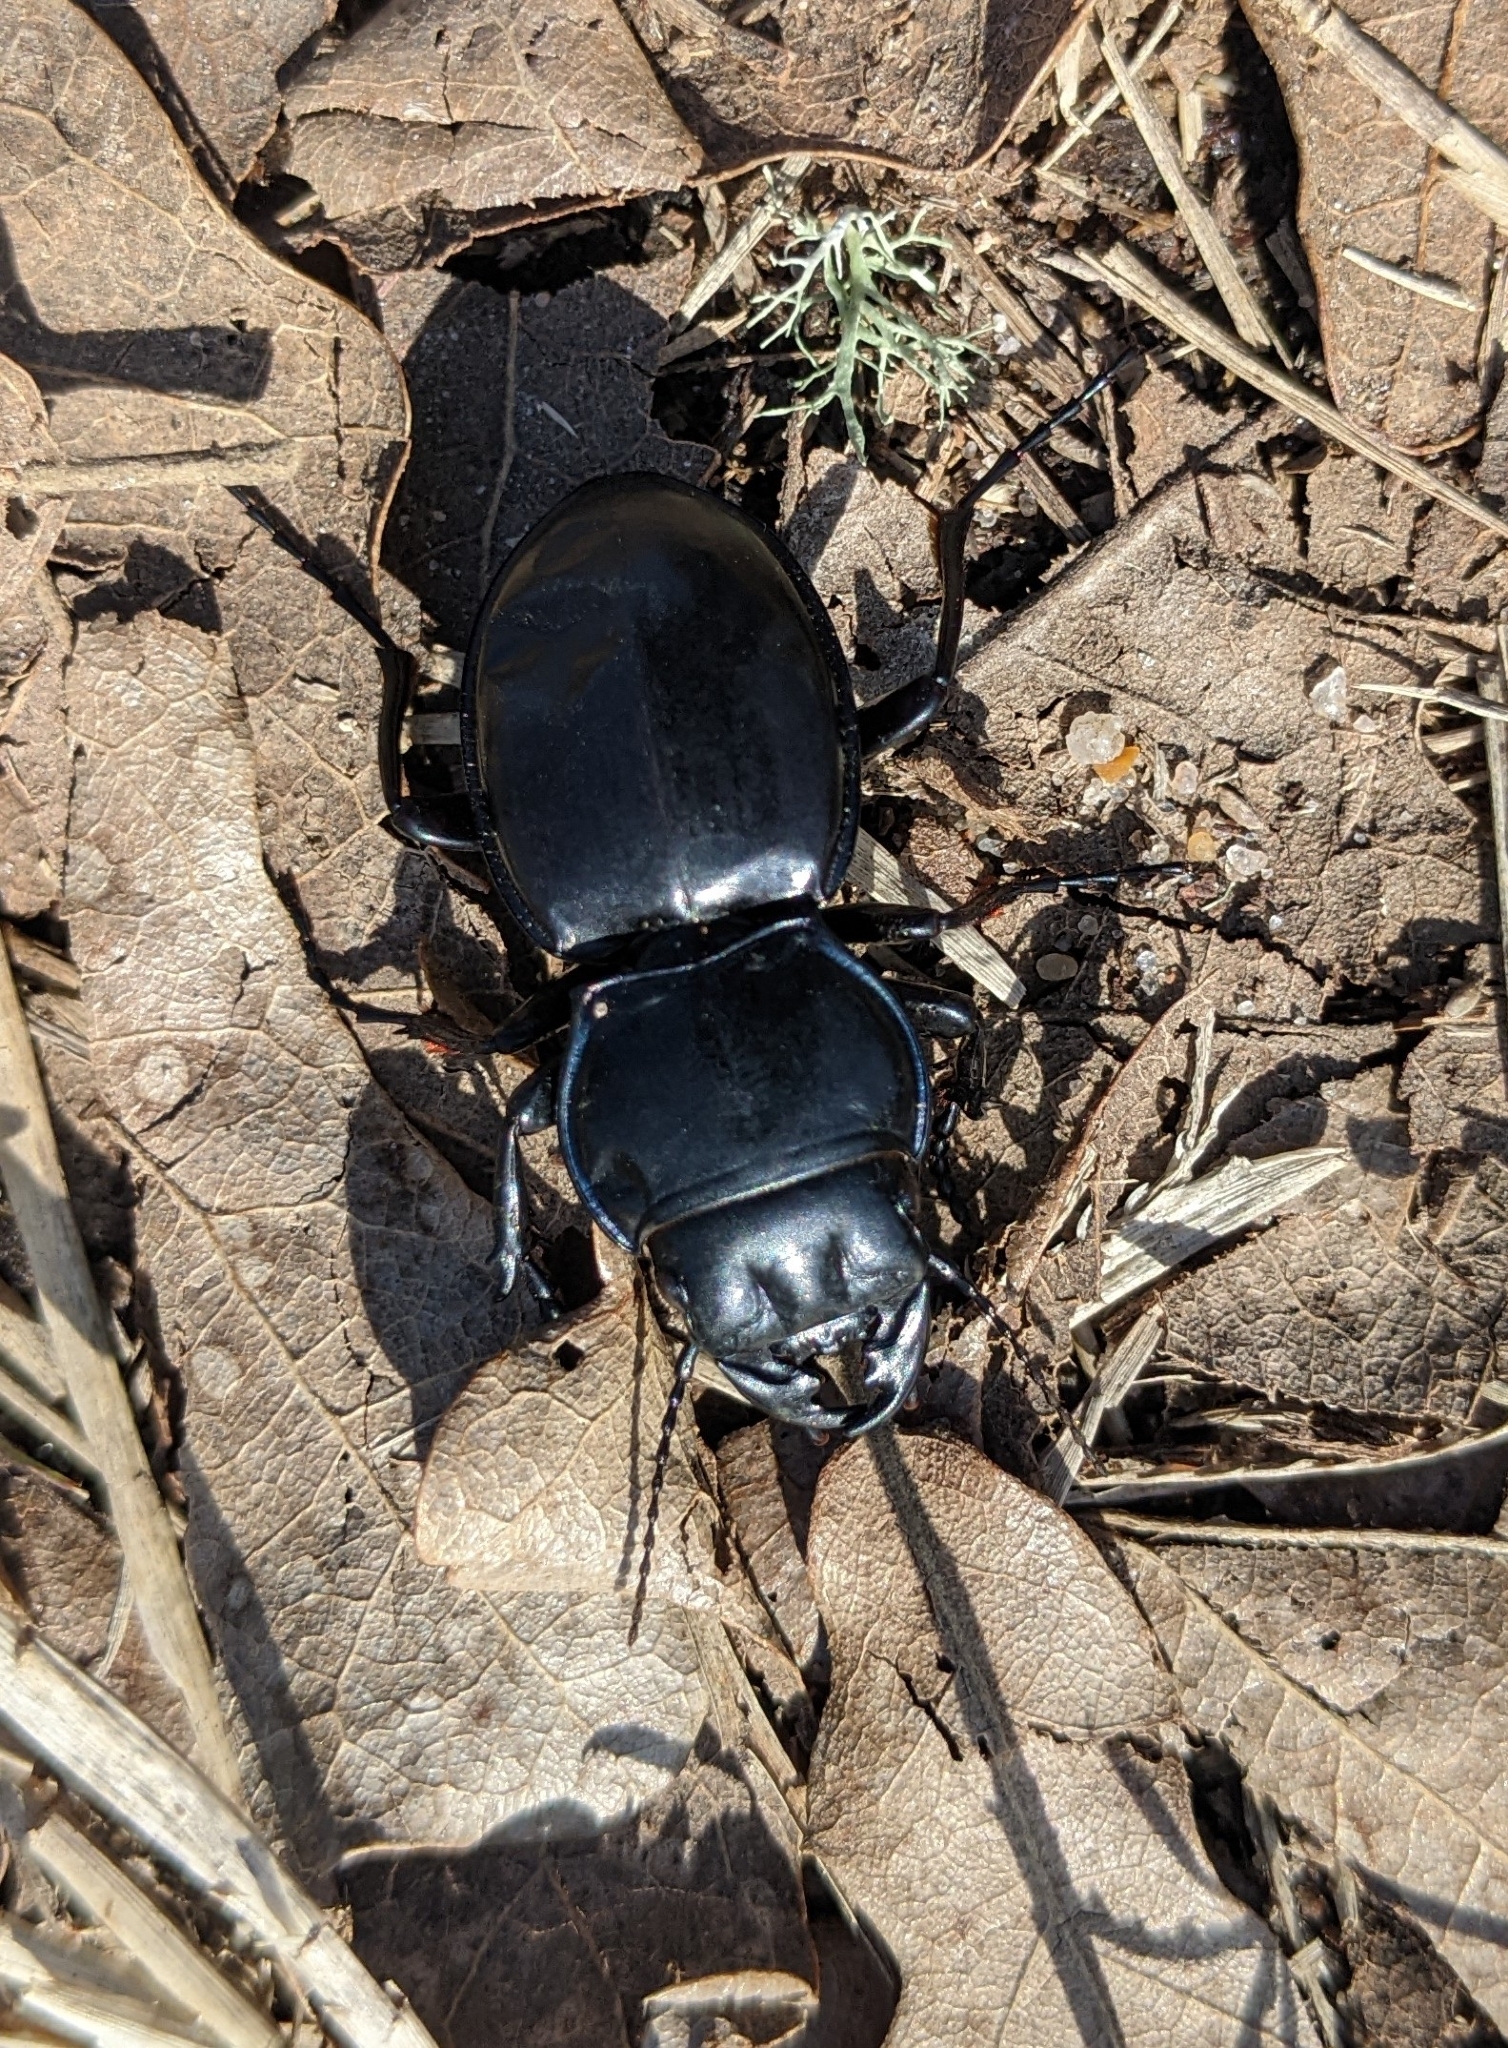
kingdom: Animalia
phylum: Arthropoda
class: Insecta
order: Coleoptera
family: Carabidae
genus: Pasimachus
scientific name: Pasimachus elongatus
